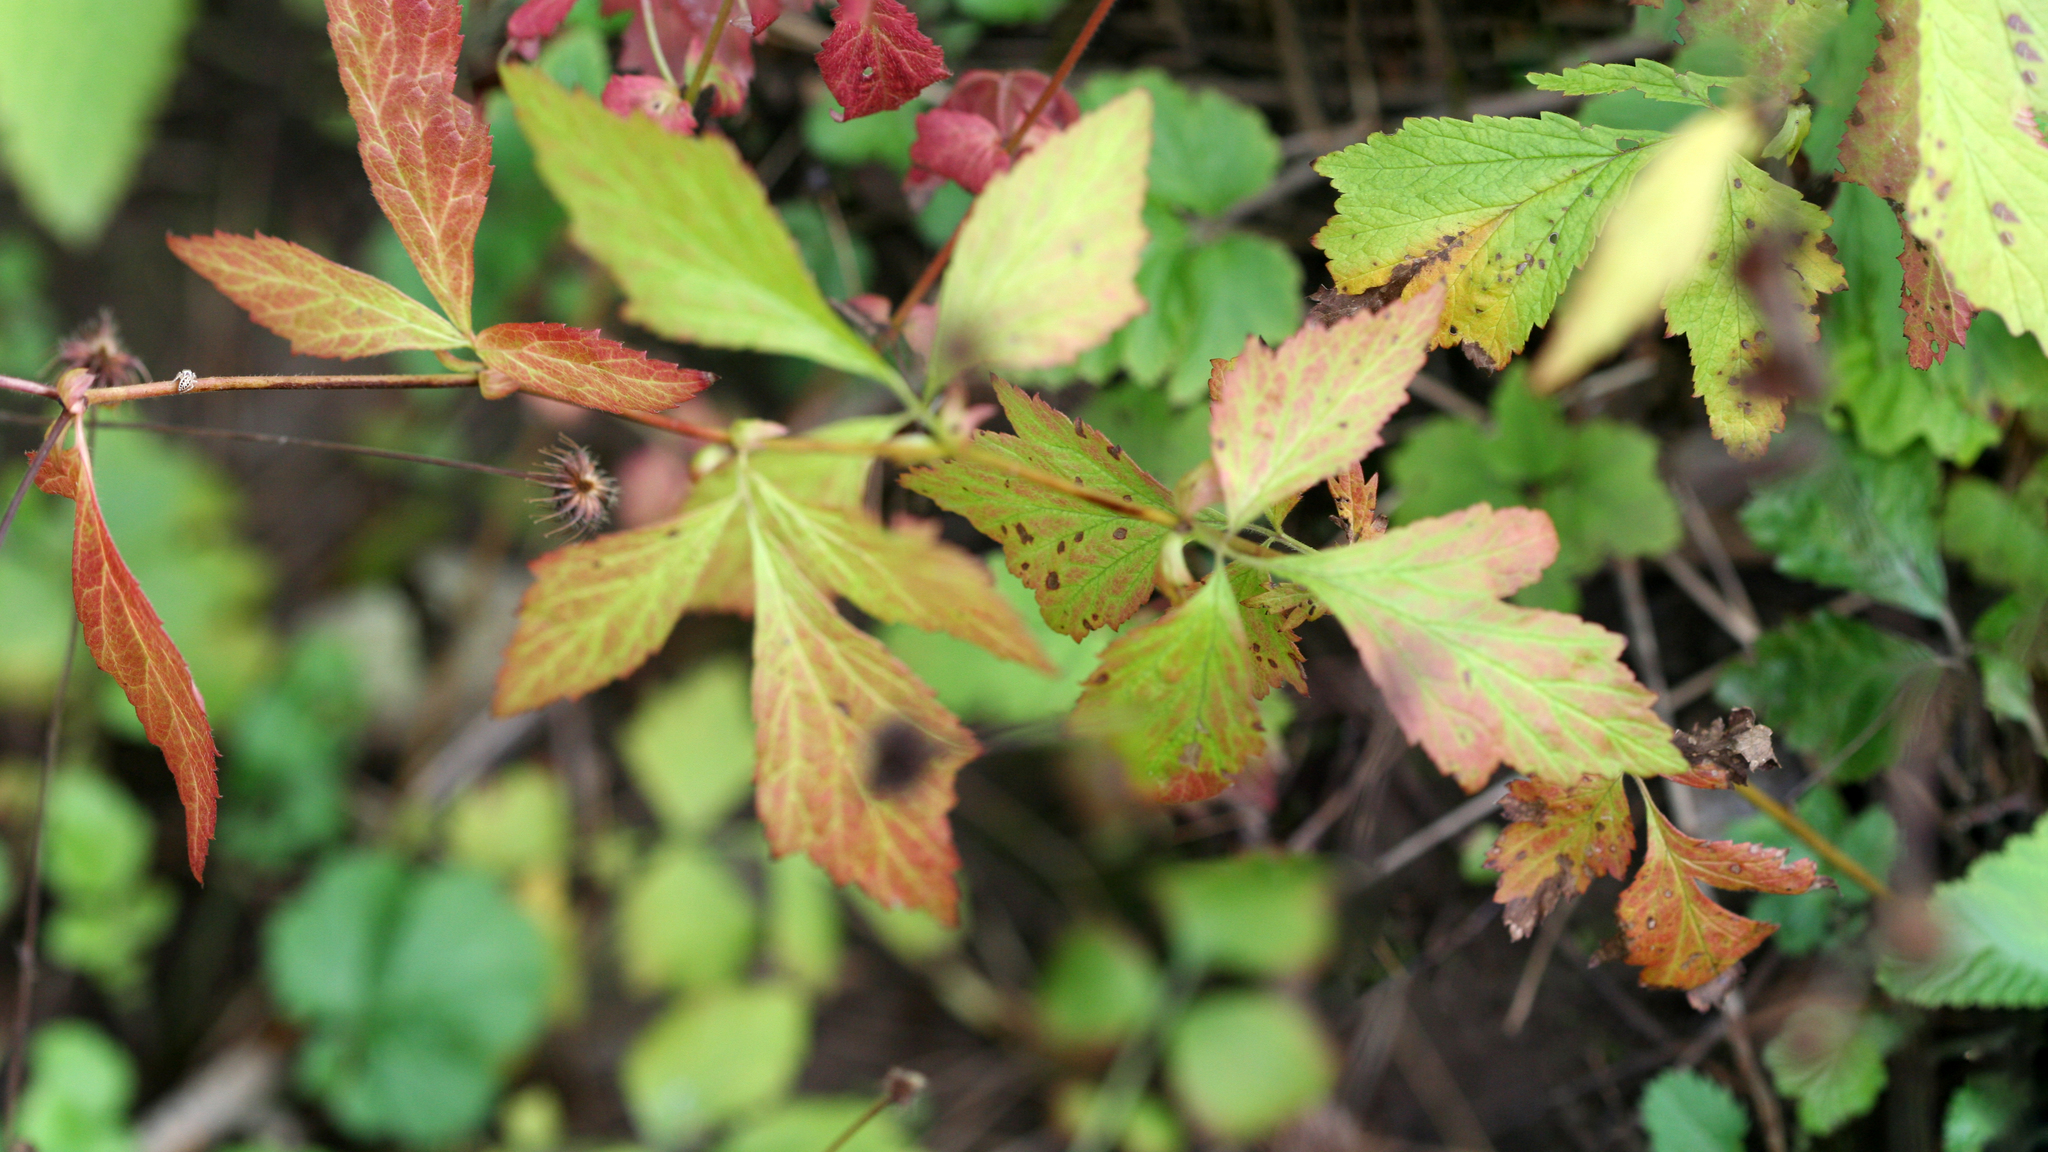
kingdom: Plantae
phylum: Tracheophyta
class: Magnoliopsida
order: Rosales
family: Rosaceae
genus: Geum
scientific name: Geum canadense
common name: White avens
